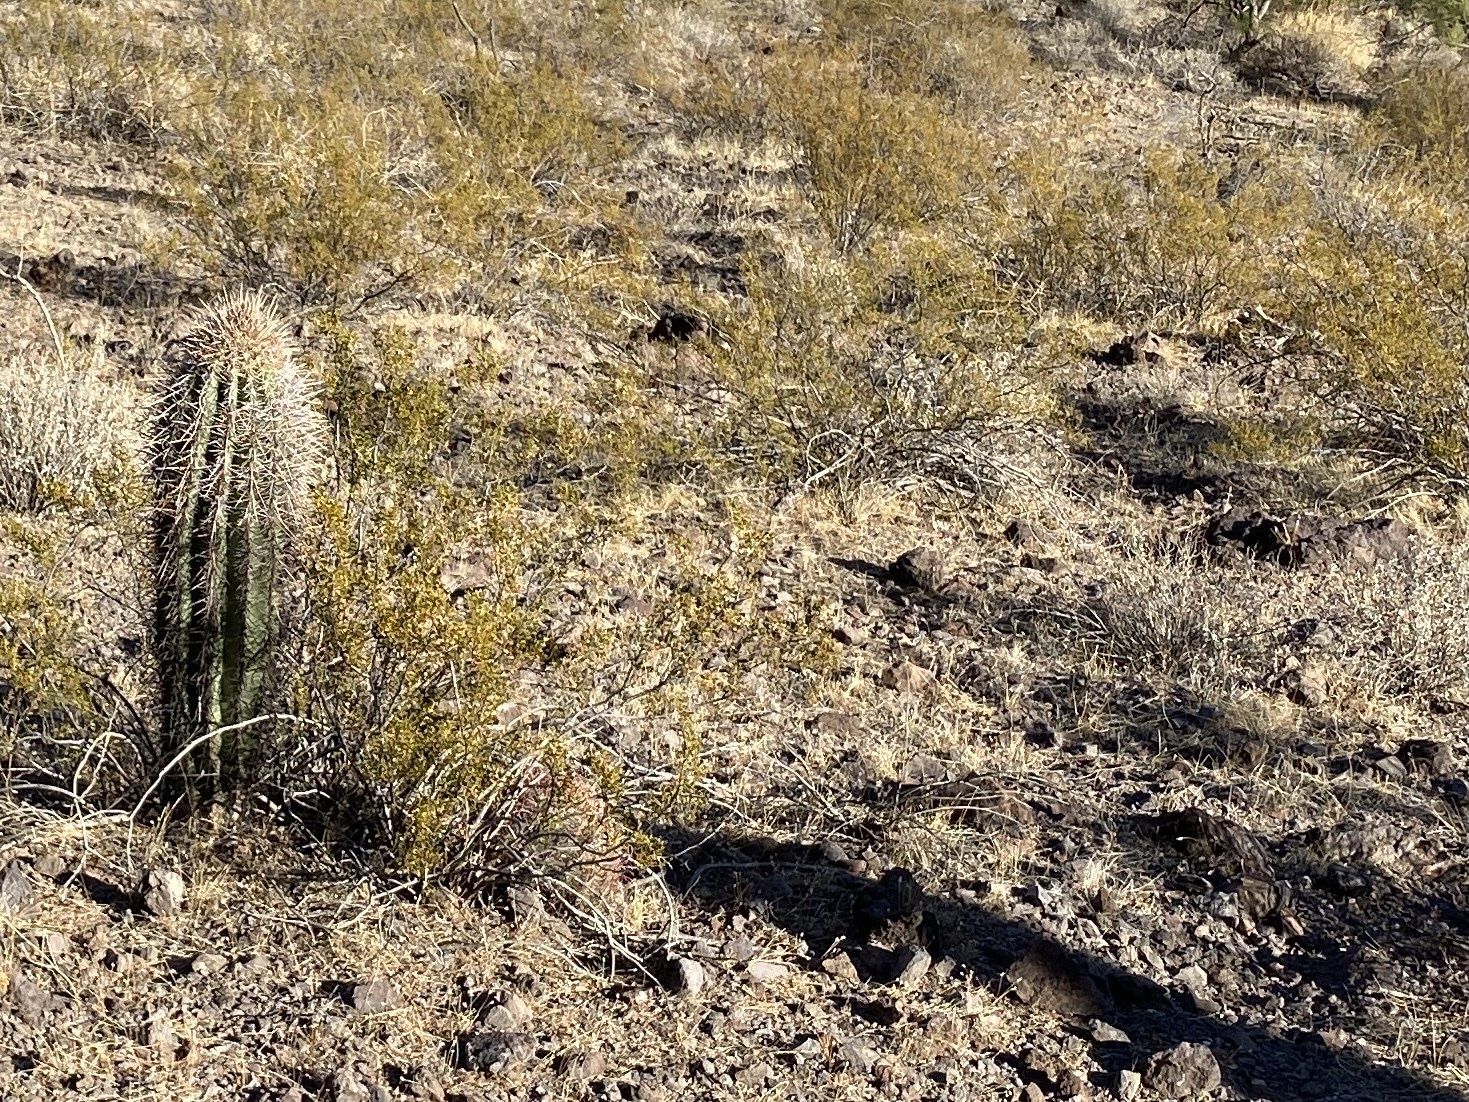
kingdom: Plantae
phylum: Tracheophyta
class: Magnoliopsida
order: Caryophyllales
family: Cactaceae
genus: Carnegiea
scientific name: Carnegiea gigantea
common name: Saguaro
